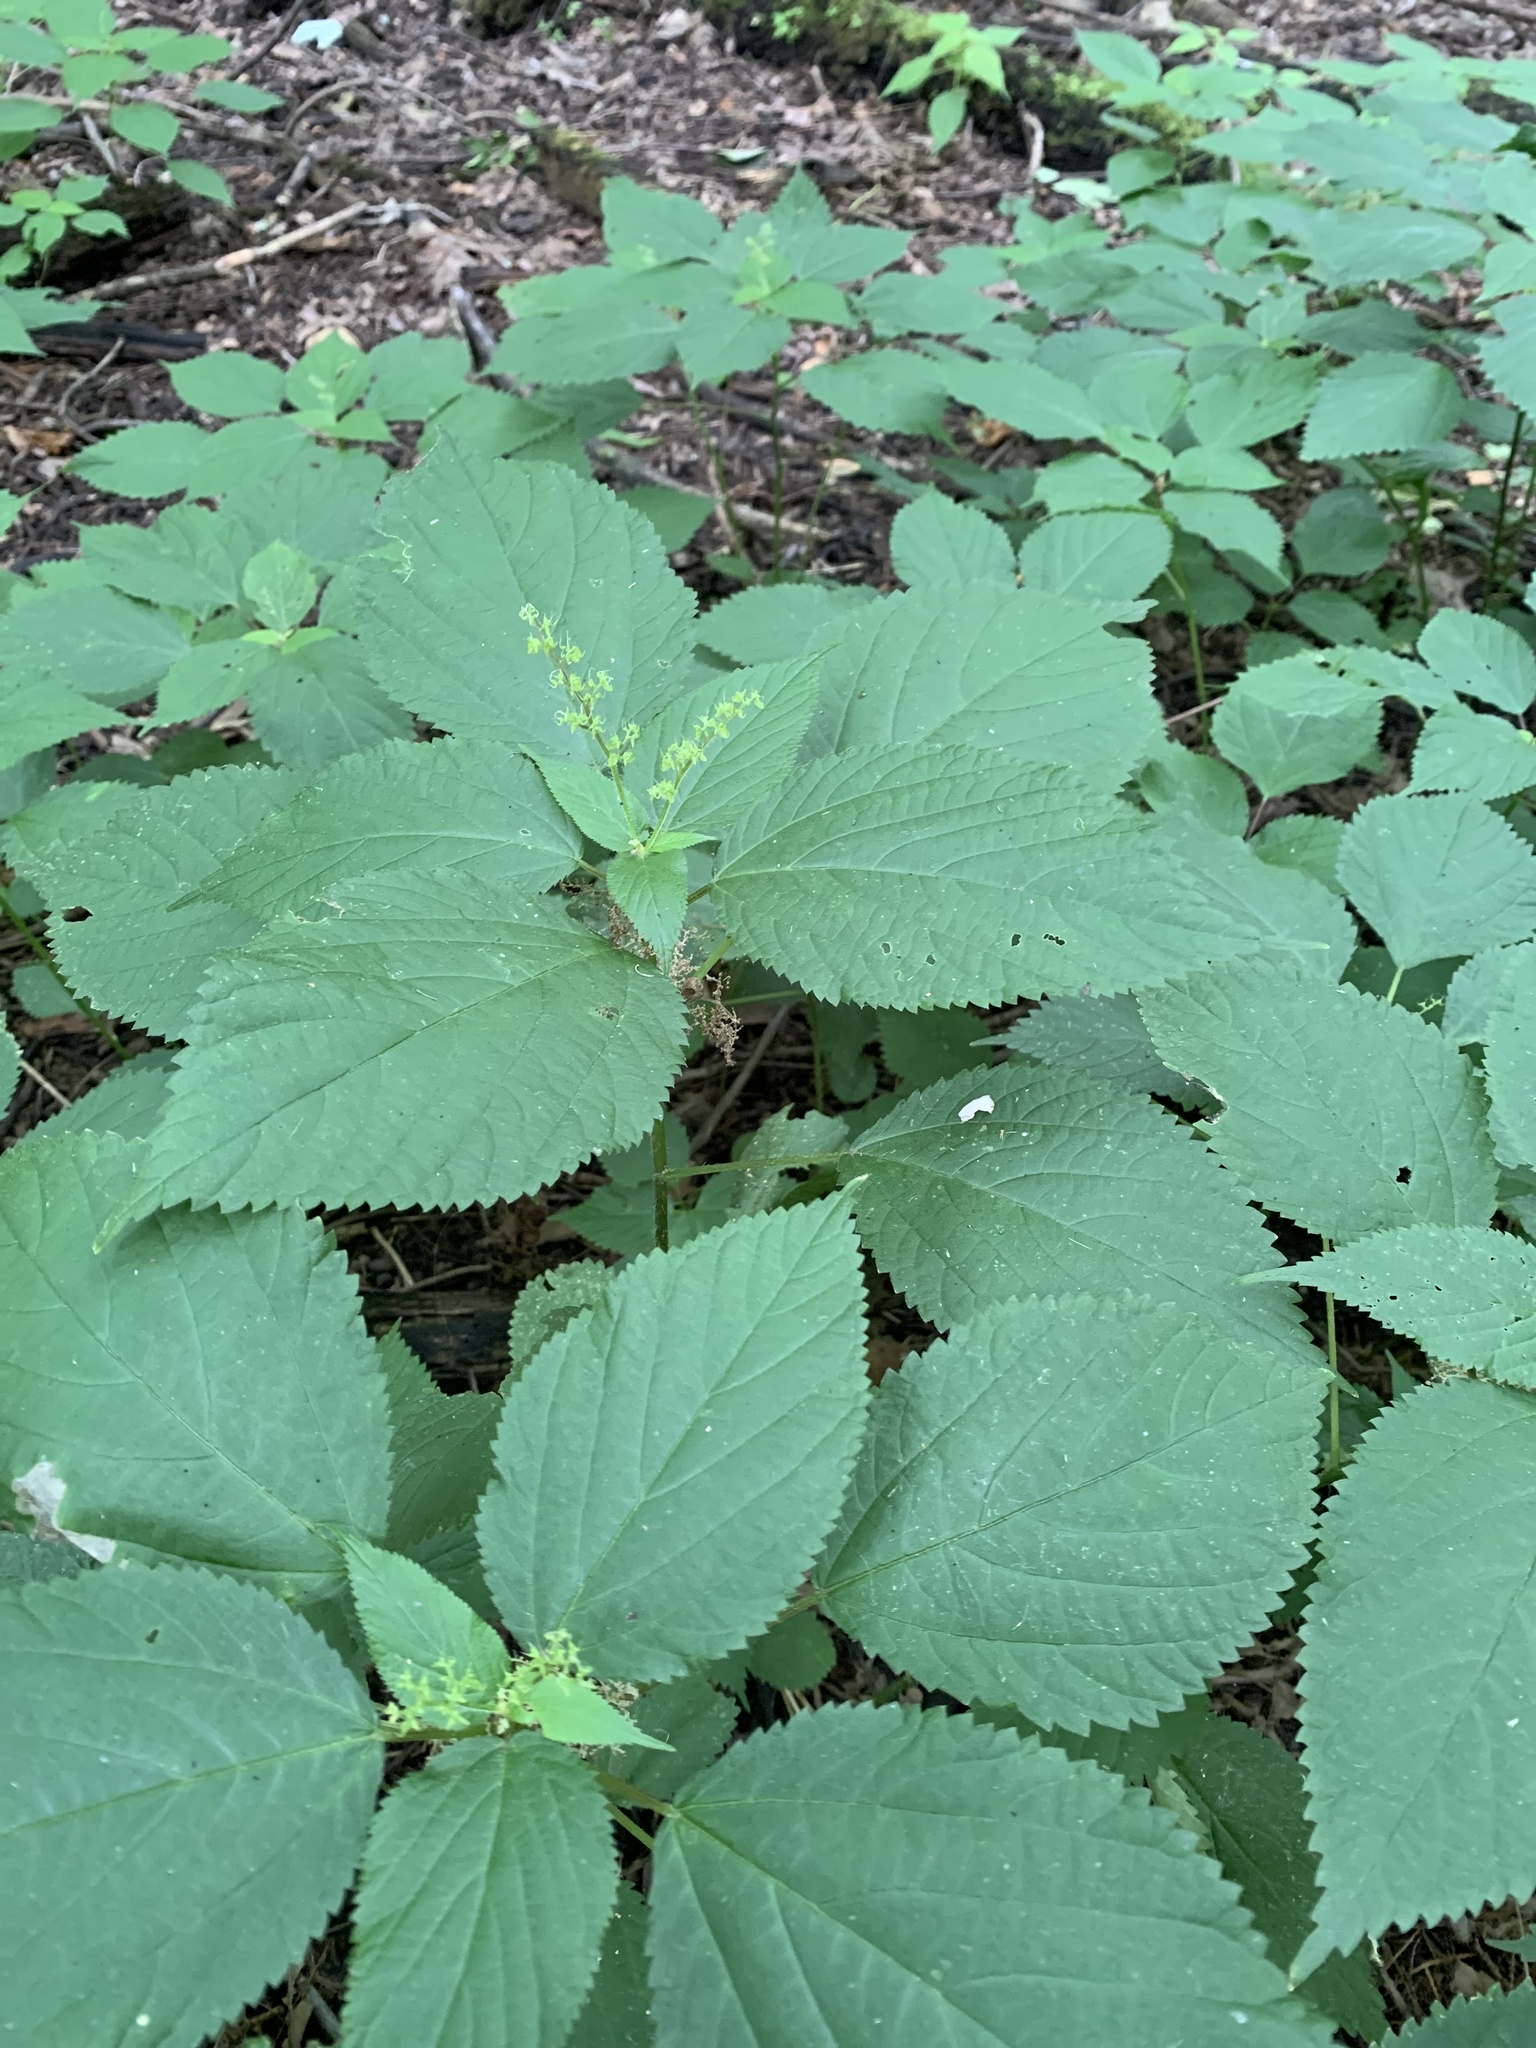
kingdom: Plantae
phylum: Tracheophyta
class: Magnoliopsida
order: Rosales
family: Urticaceae
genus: Laportea
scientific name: Laportea canadensis
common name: Canada nettle
